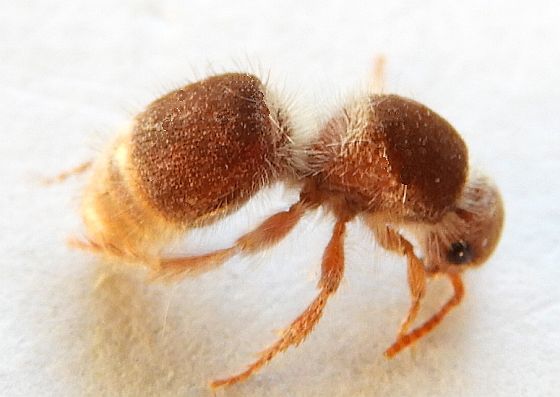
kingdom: Animalia
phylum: Arthropoda
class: Insecta
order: Hymenoptera
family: Mutillidae
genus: Odontophotopsis
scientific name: Odontophotopsis
